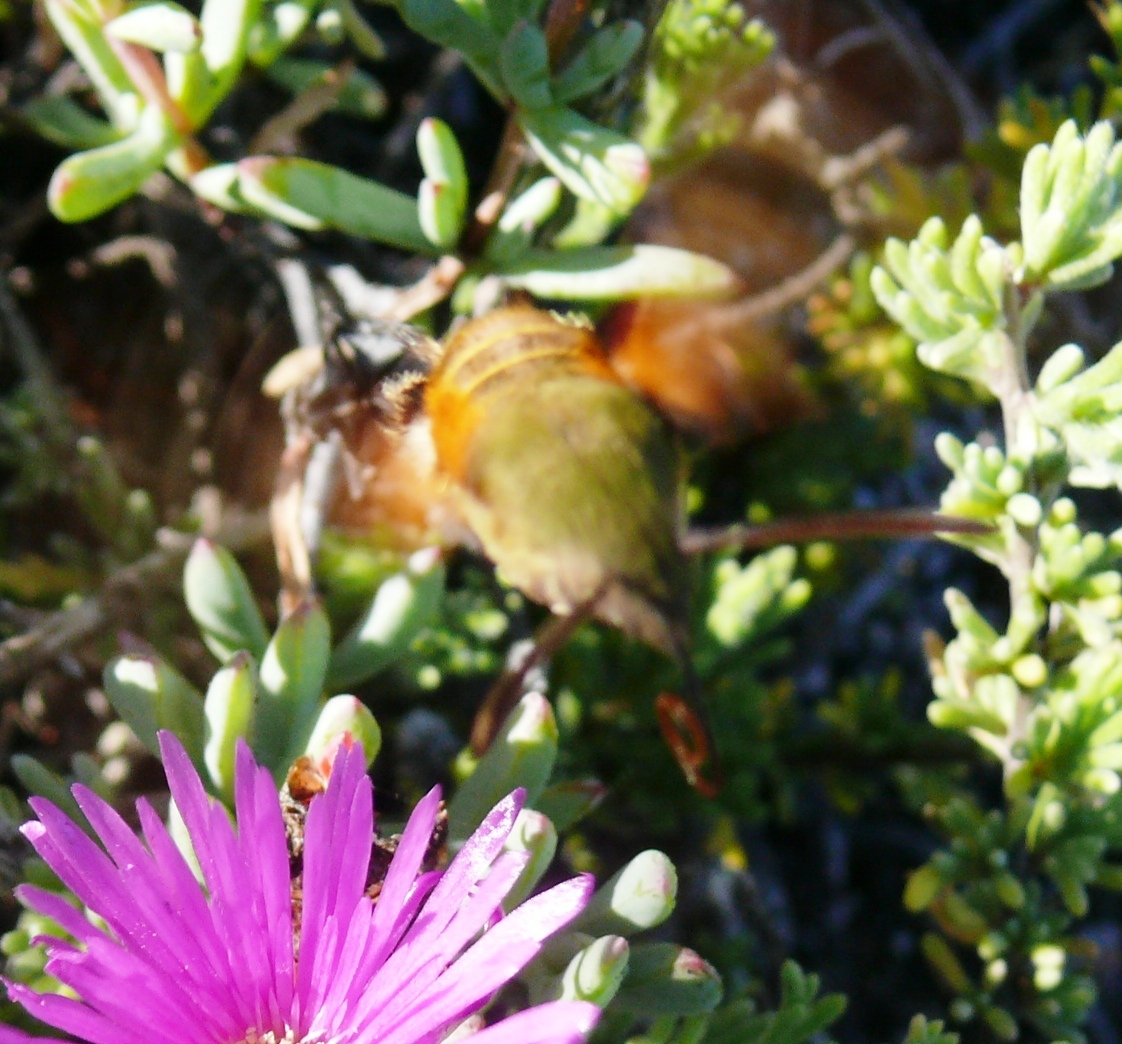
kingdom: Animalia
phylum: Arthropoda
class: Insecta
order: Lepidoptera
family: Sphingidae
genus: Macroglossum
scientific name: Macroglossum trochilus
